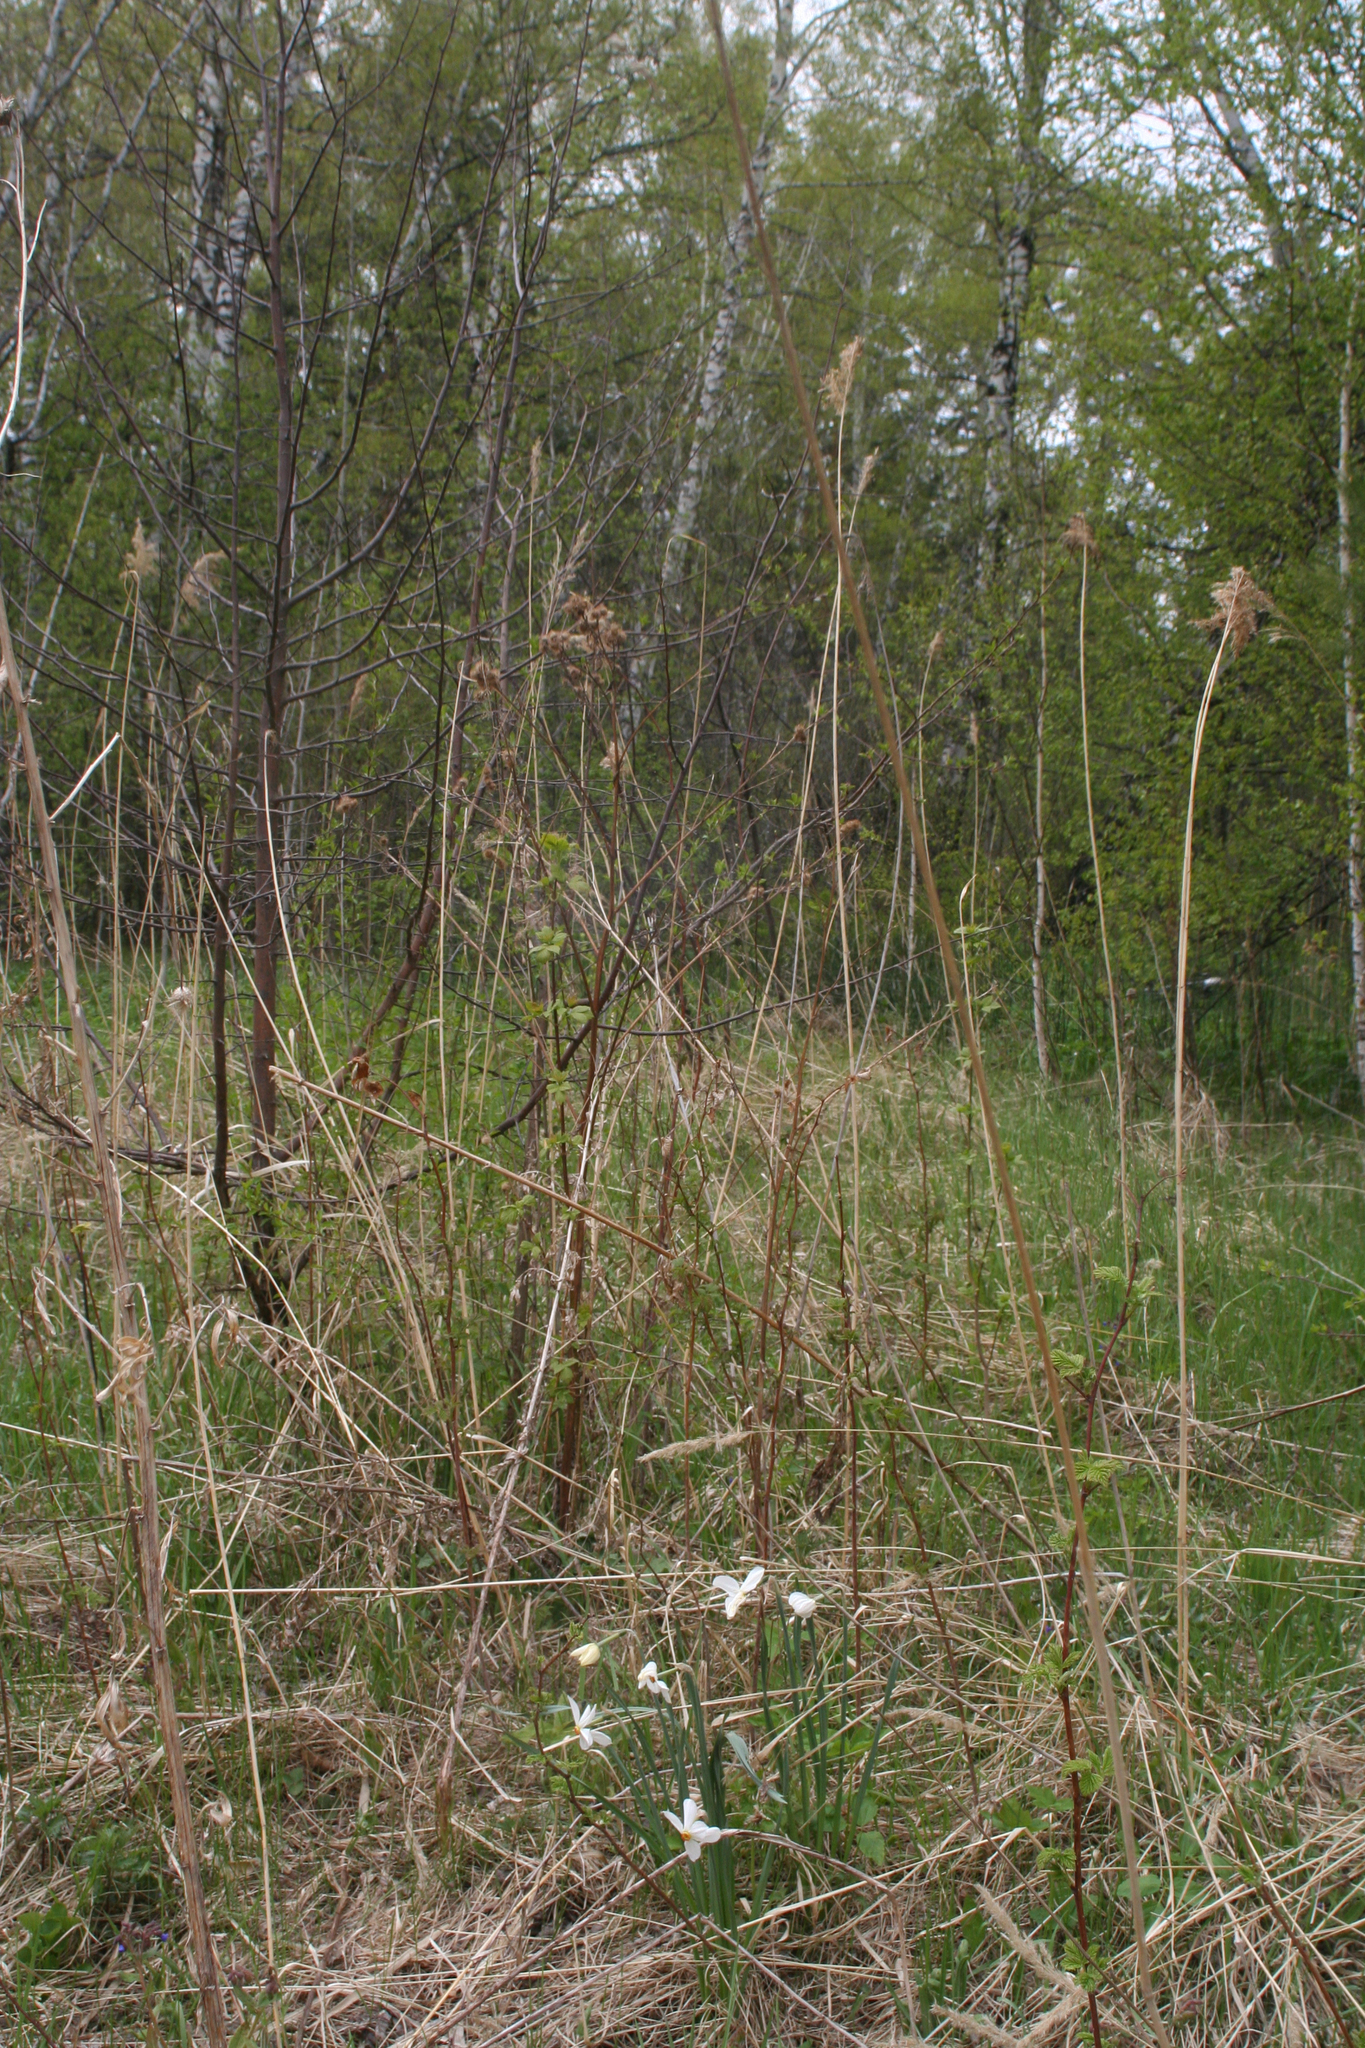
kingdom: Plantae
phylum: Tracheophyta
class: Liliopsida
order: Asparagales
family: Amaryllidaceae
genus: Narcissus
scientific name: Narcissus incomparabilis
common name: Nonesuch daffodil
